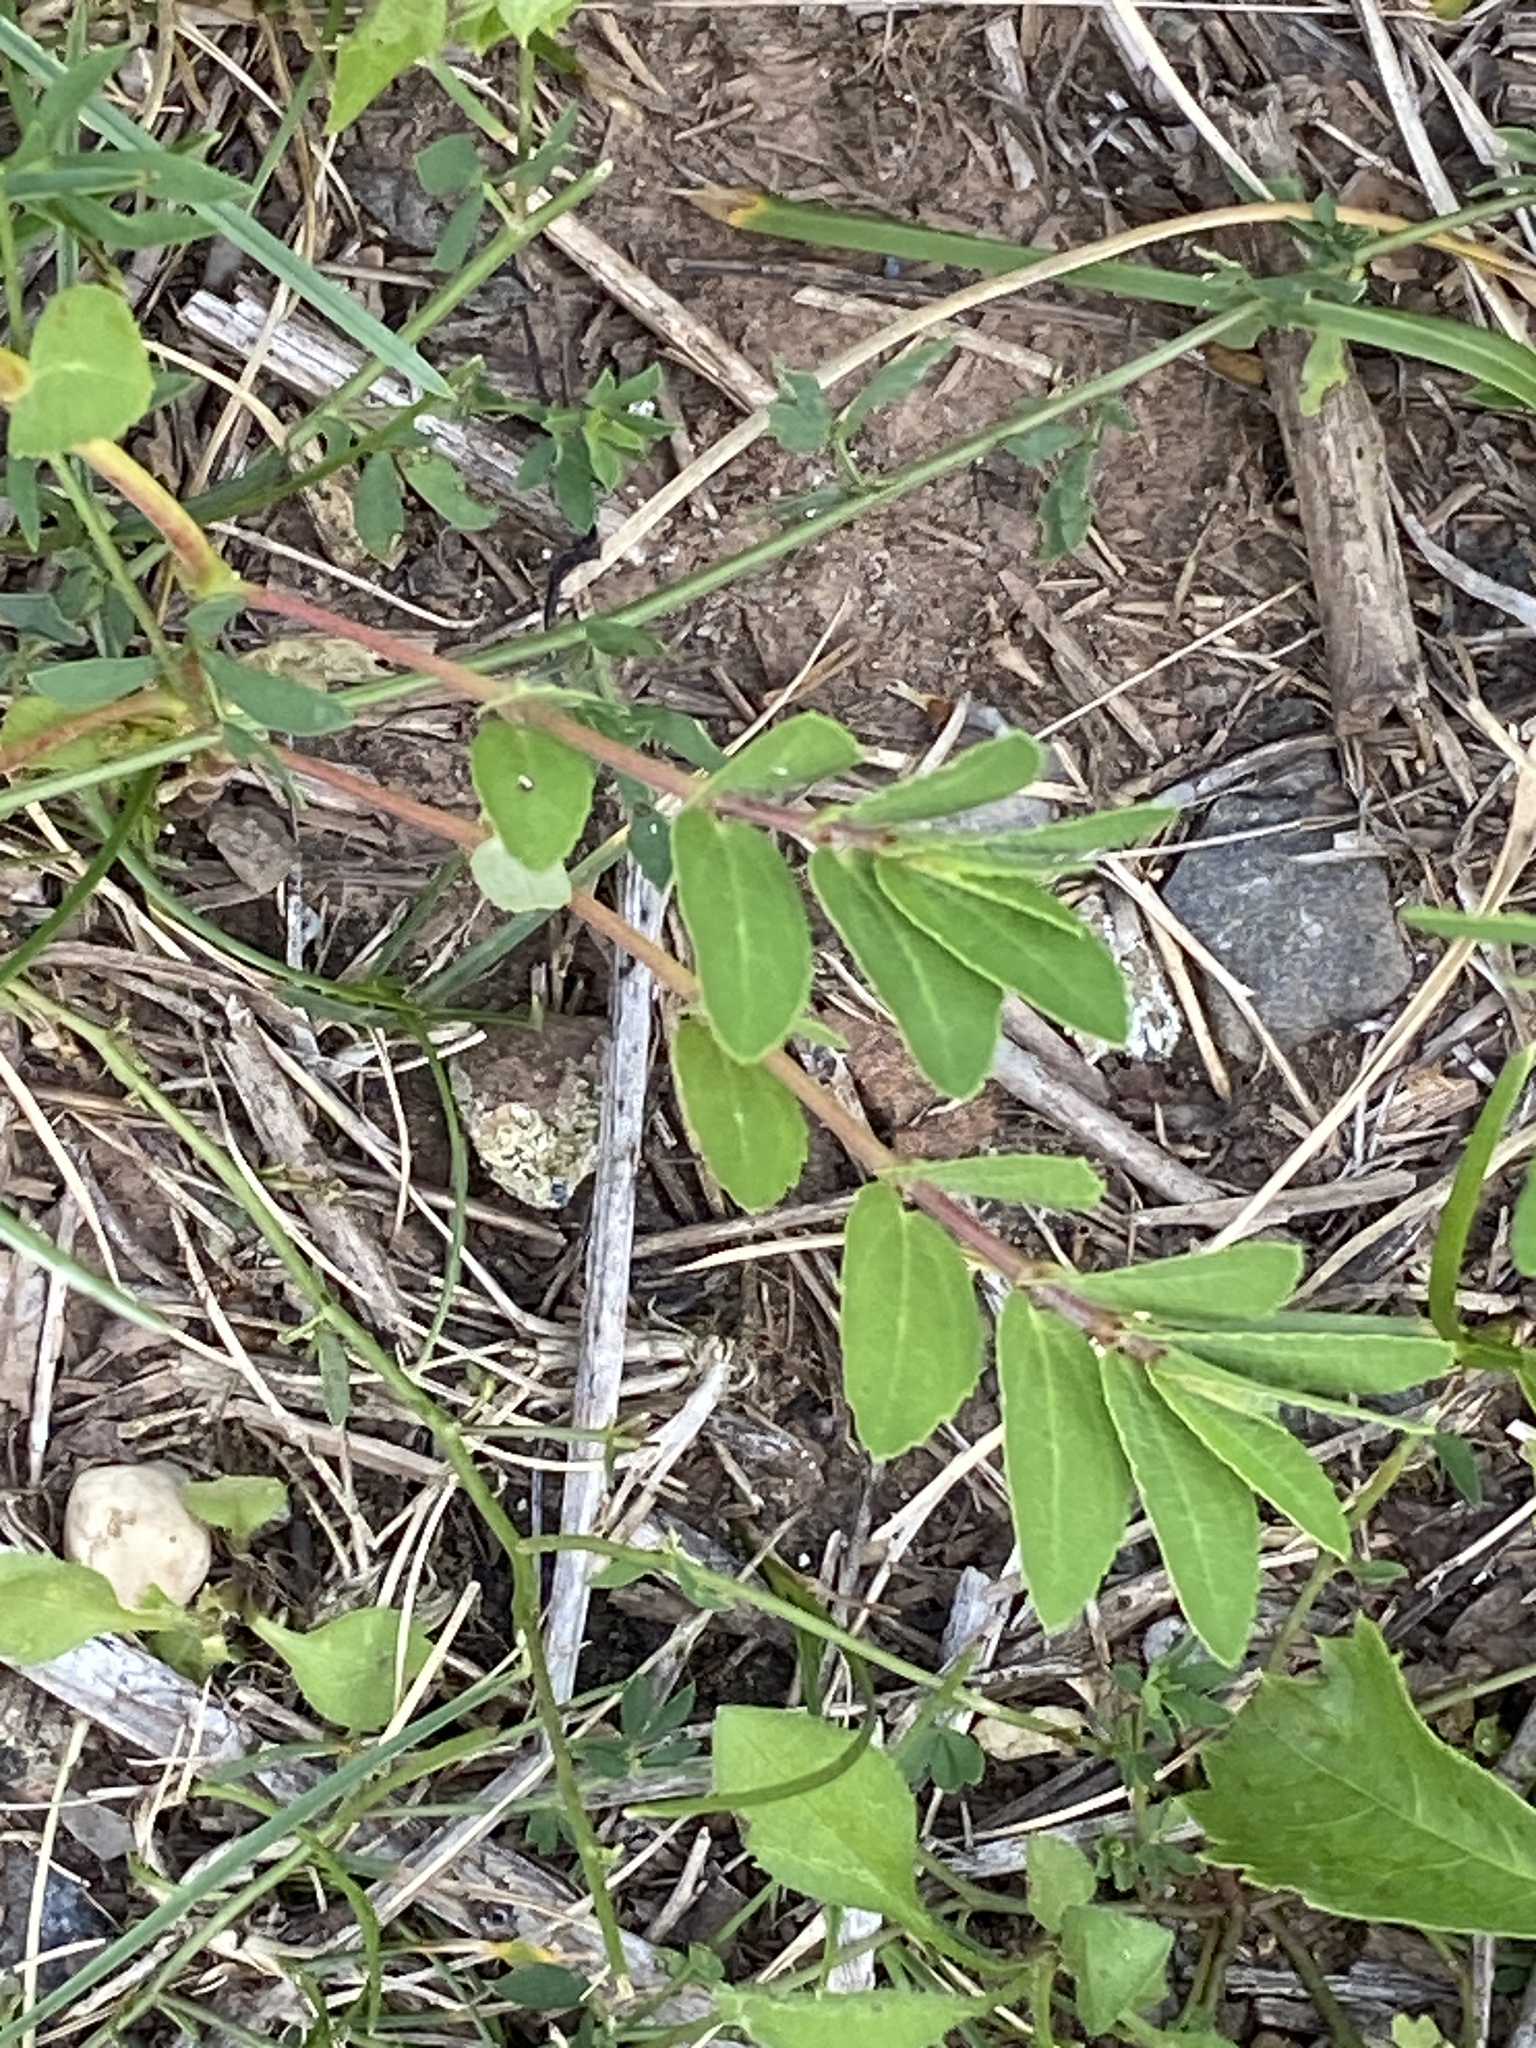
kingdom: Plantae
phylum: Tracheophyta
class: Magnoliopsida
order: Malpighiales
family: Euphorbiaceae
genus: Euphorbia
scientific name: Euphorbia nutans
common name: Eyebane
